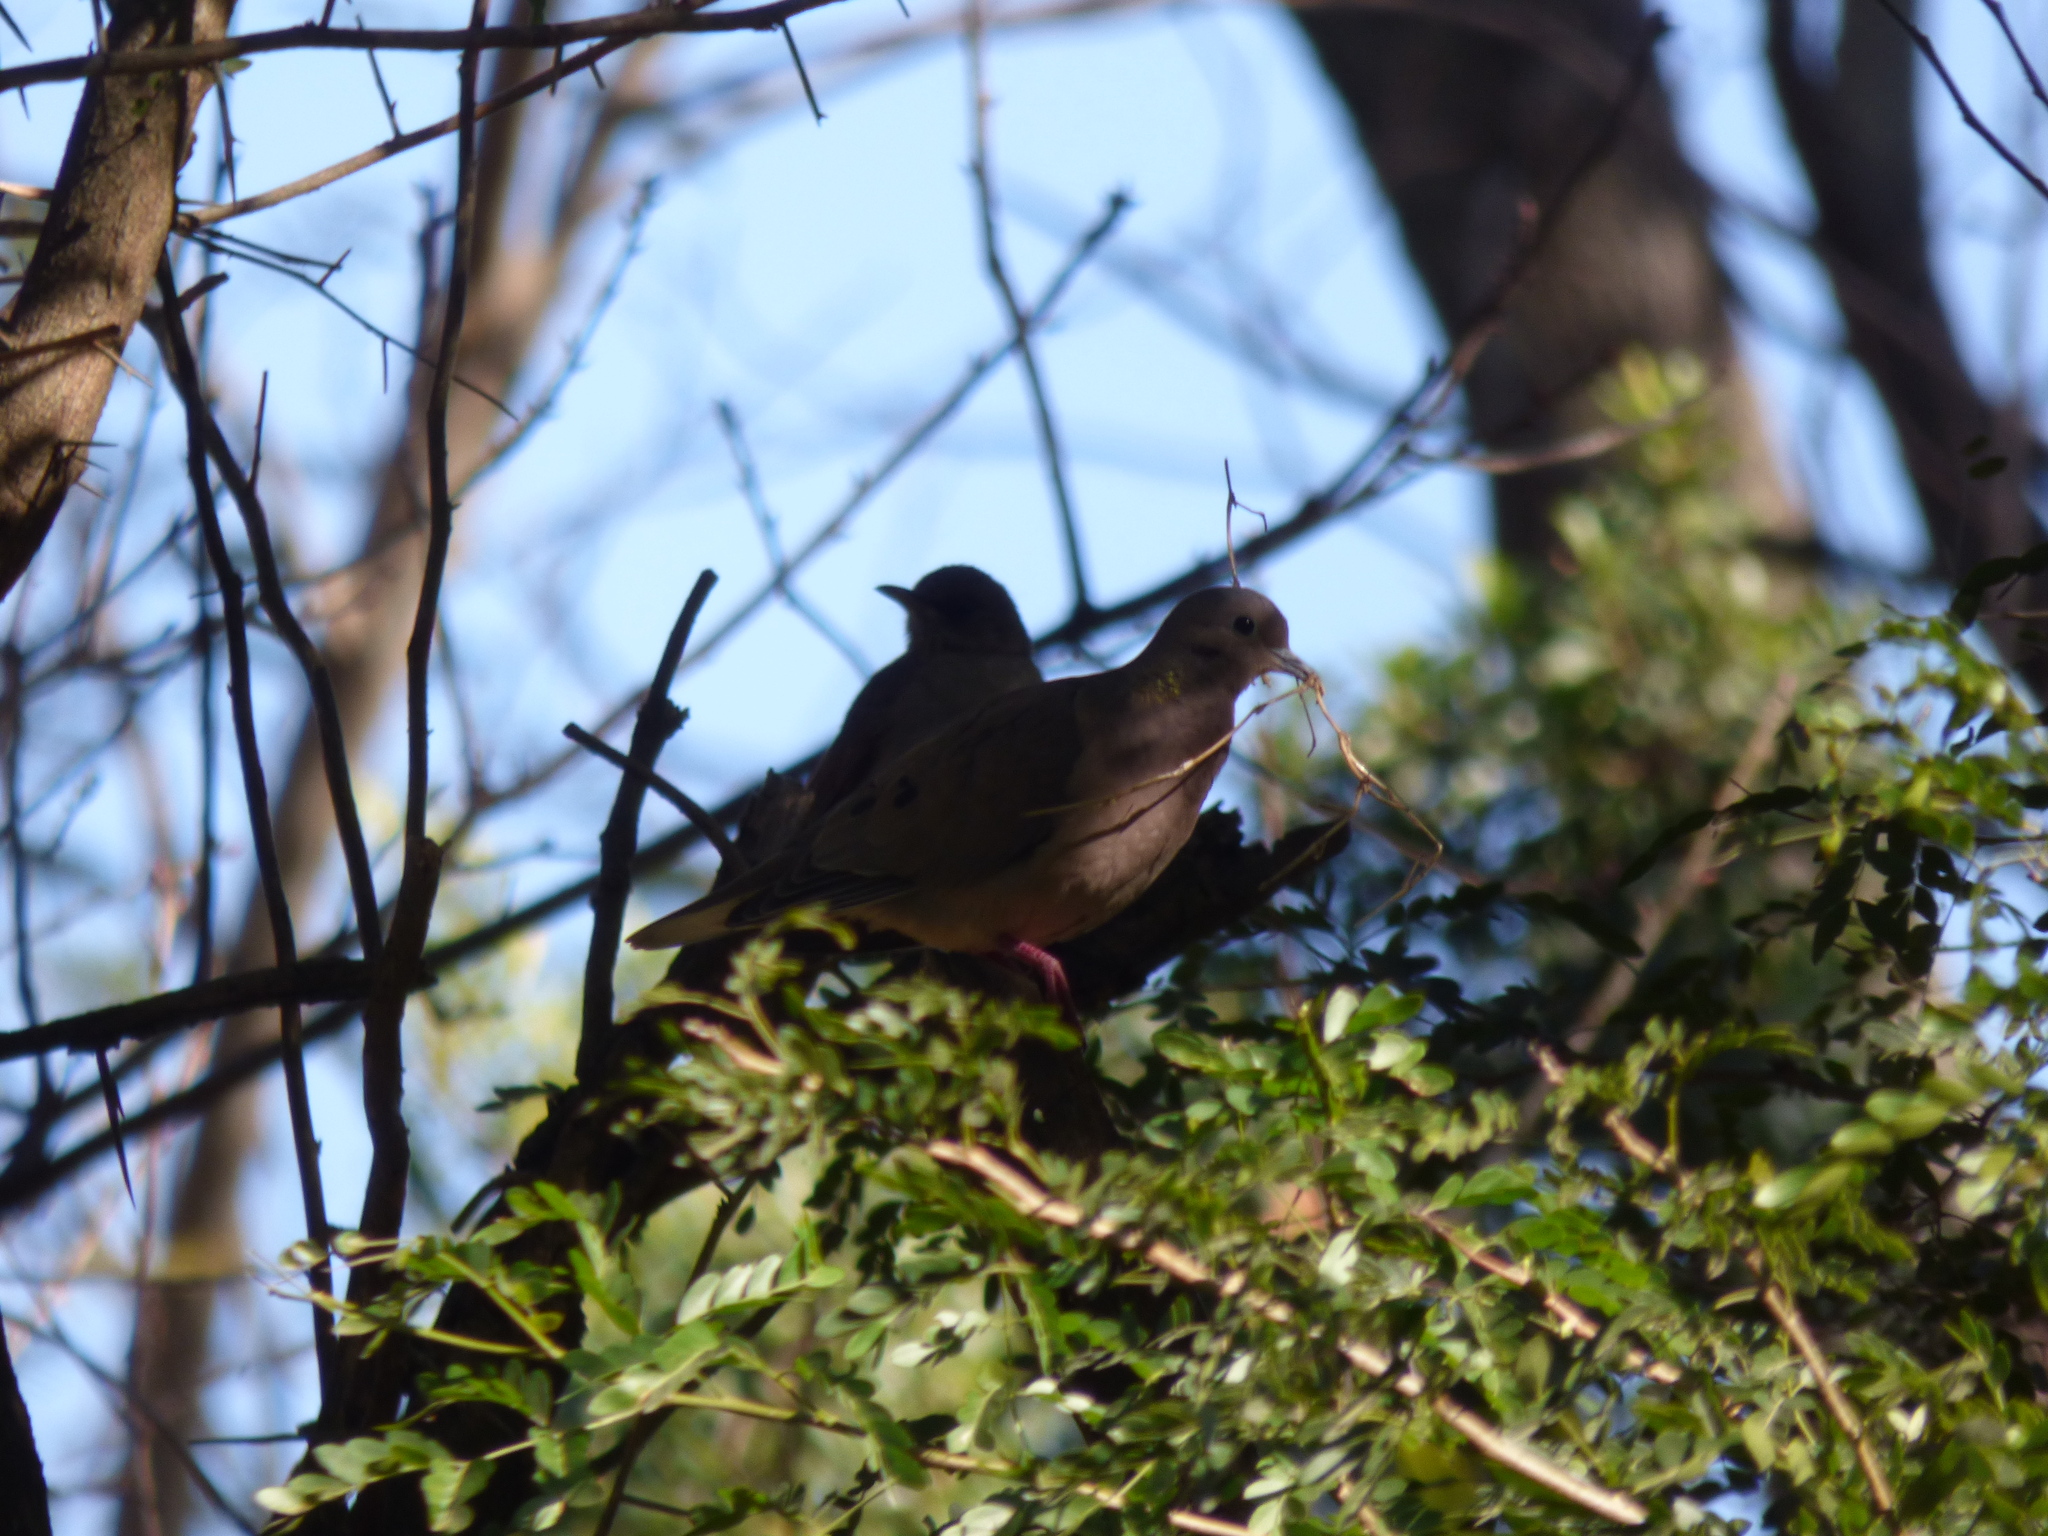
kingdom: Animalia
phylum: Chordata
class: Aves
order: Columbiformes
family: Columbidae
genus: Zenaida
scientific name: Zenaida auriculata
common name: Eared dove
